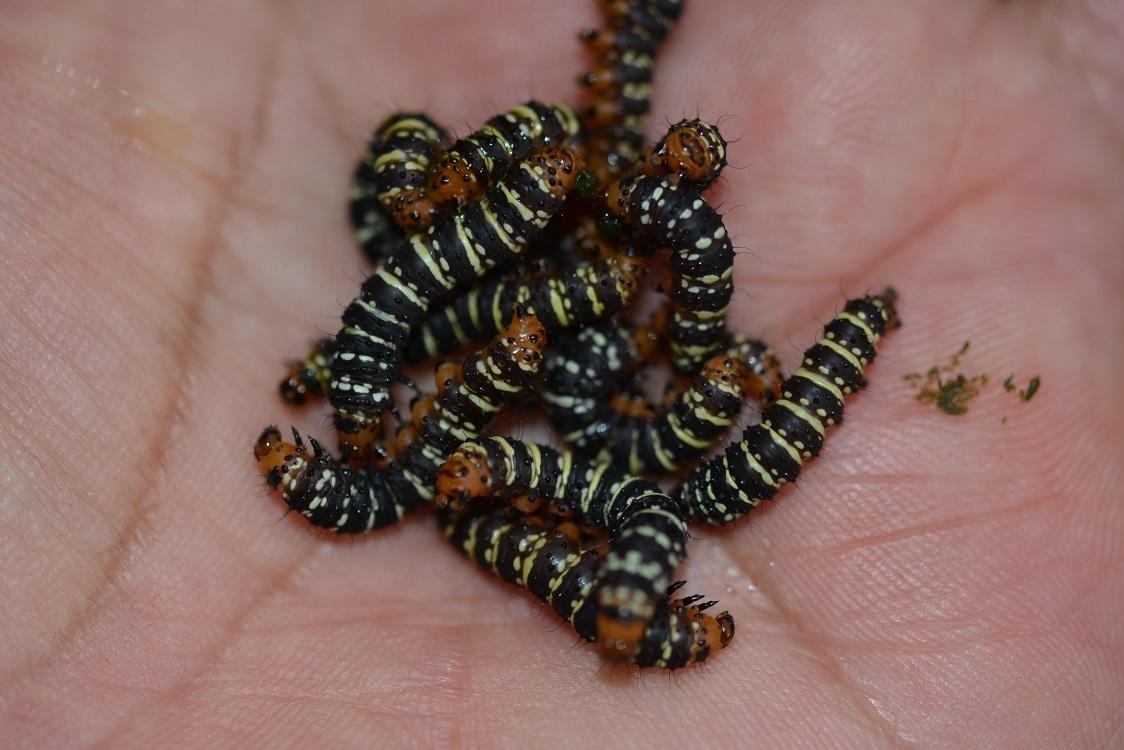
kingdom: Animalia
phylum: Arthropoda
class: Insecta
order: Lepidoptera
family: Noctuidae
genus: Xanthopastis
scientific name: Xanthopastis moctezuma
